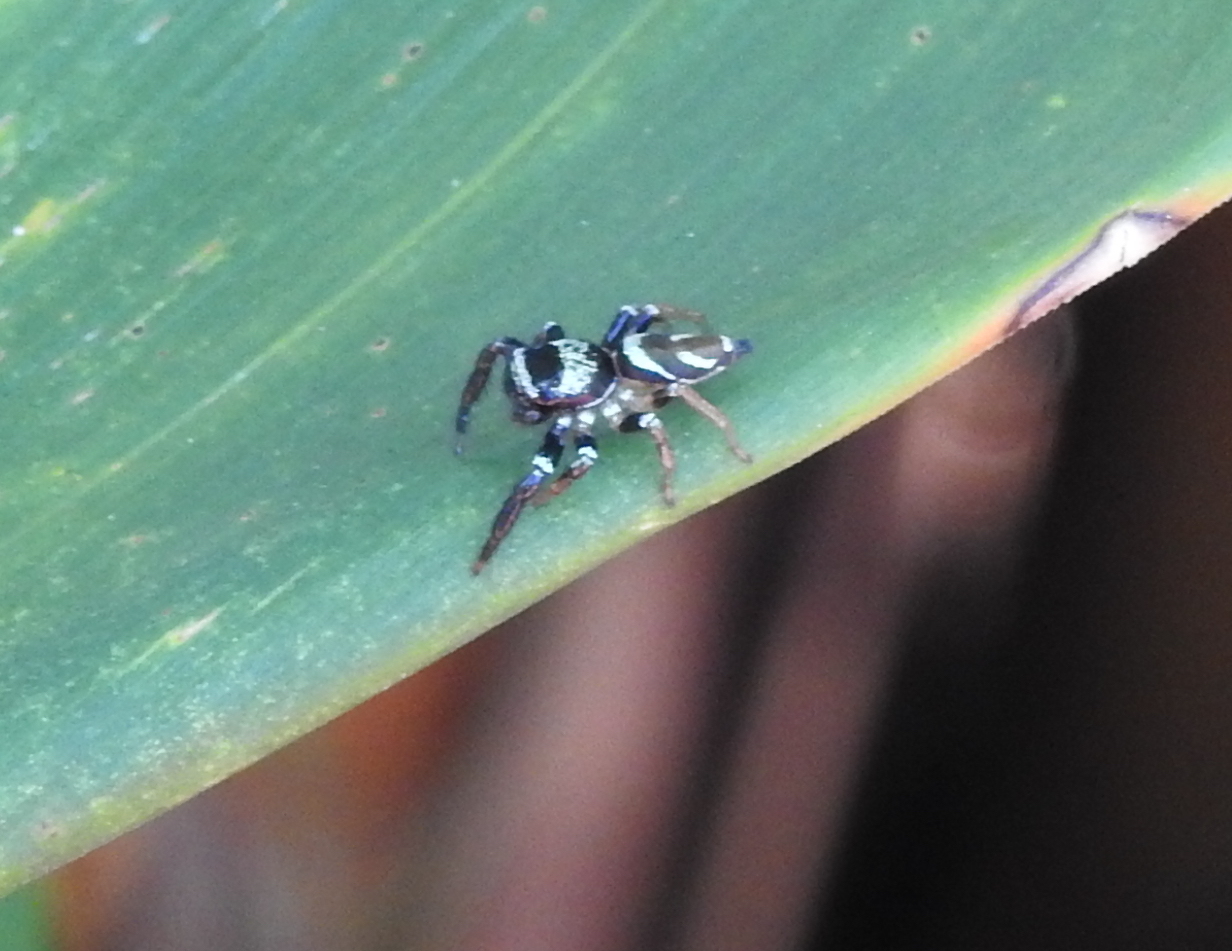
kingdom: Animalia
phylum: Arthropoda
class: Arachnida
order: Araneae
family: Salticidae
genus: Thiania
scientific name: Thiania bhamoensis
